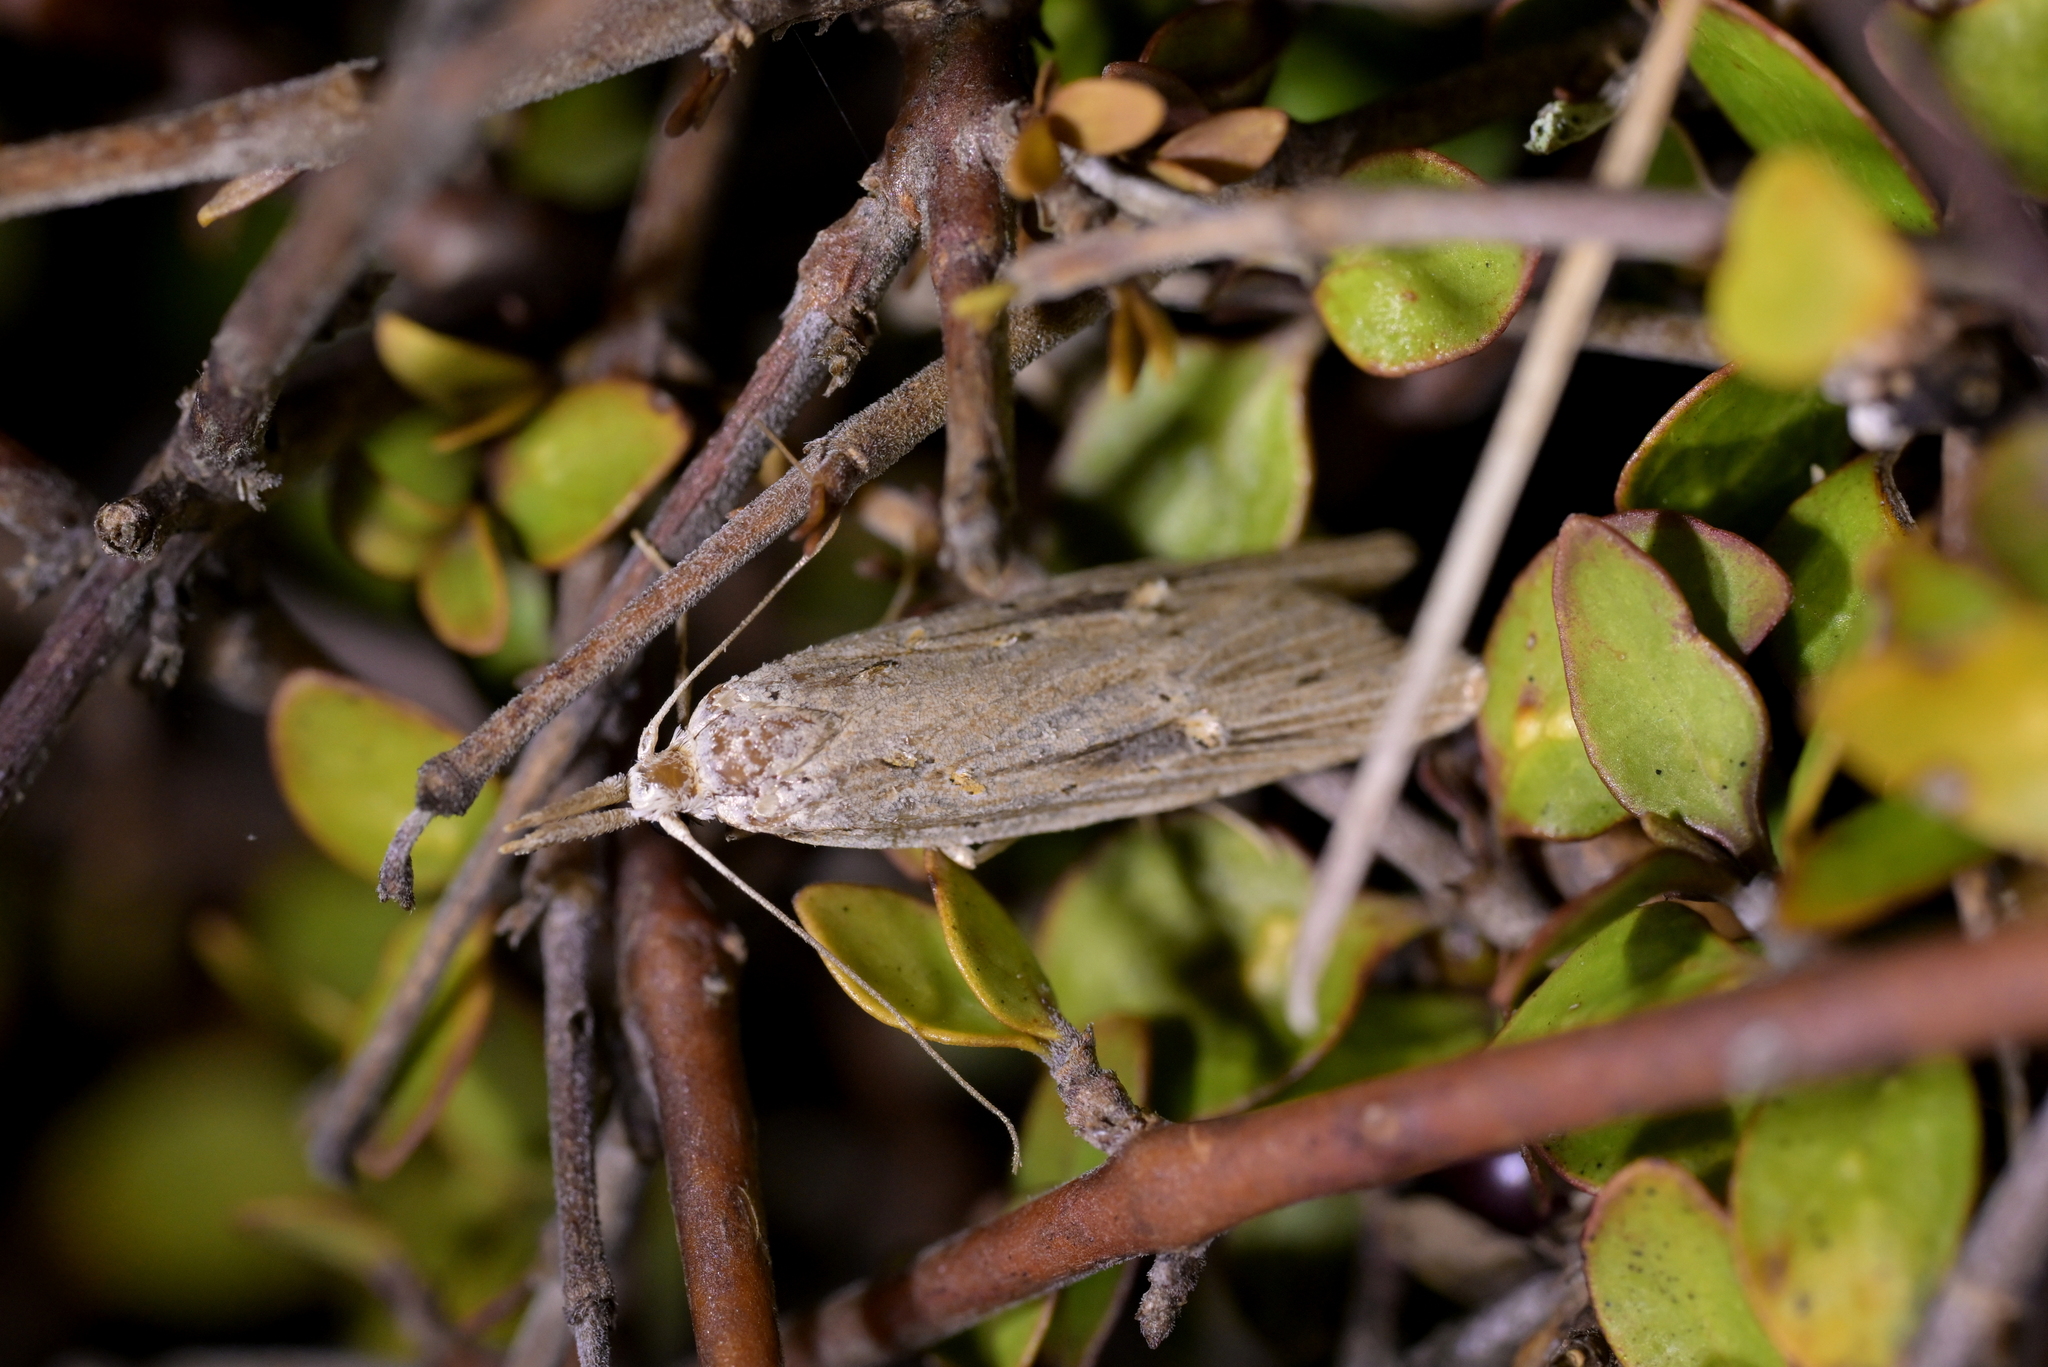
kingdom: Animalia
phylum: Arthropoda
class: Insecta
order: Lepidoptera
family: Carposinidae
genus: Carposina
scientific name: Carposina Heterocrossa exochana
